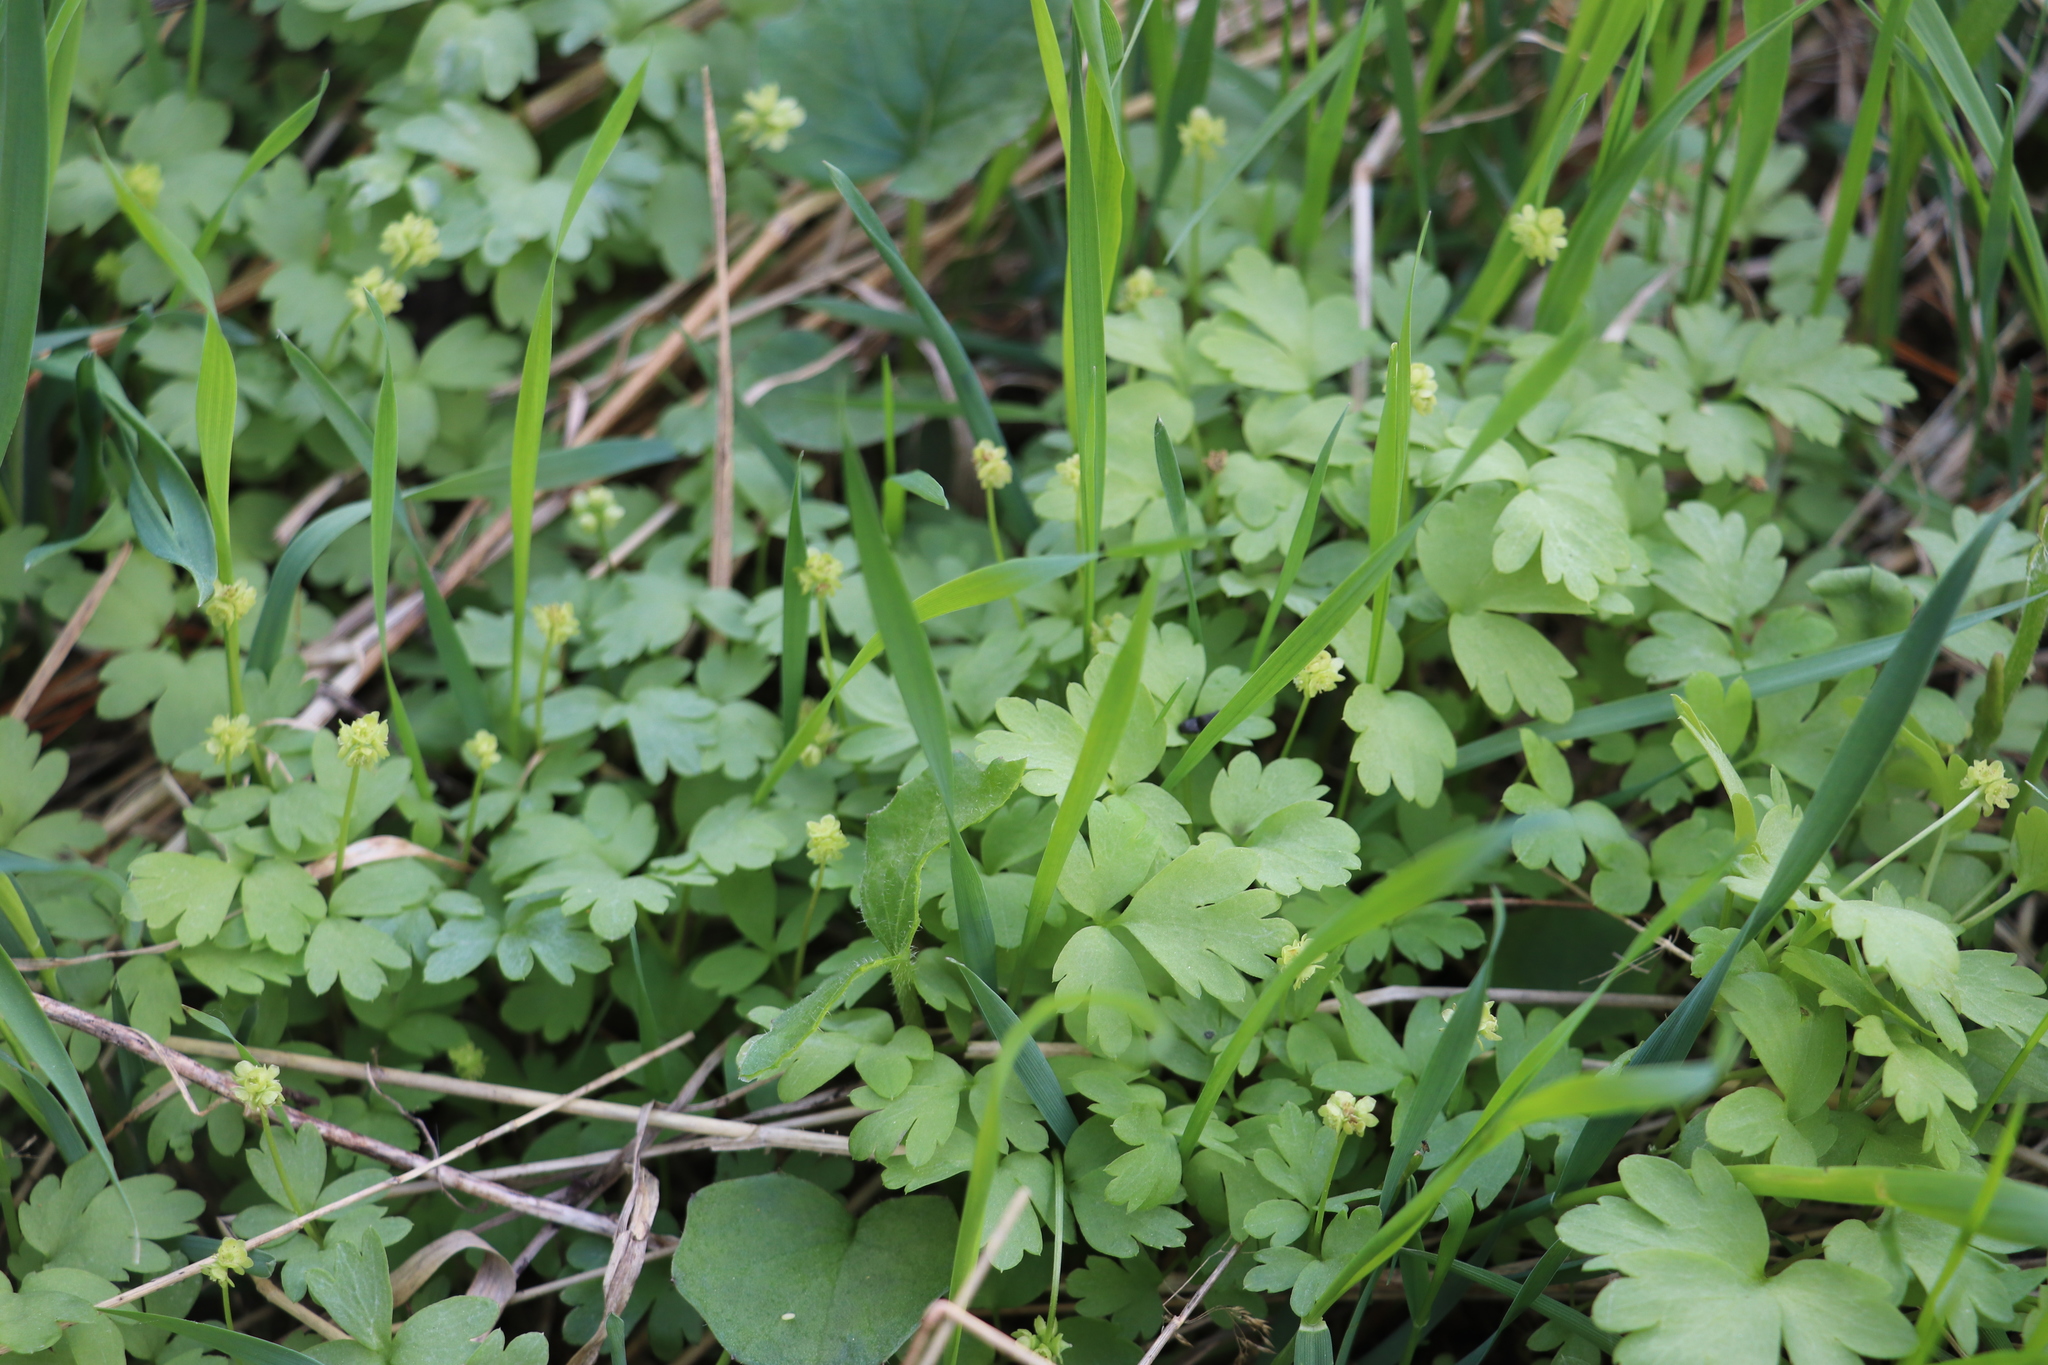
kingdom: Plantae
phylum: Tracheophyta
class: Magnoliopsida
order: Dipsacales
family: Viburnaceae
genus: Adoxa
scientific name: Adoxa moschatellina
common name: Moschatel
